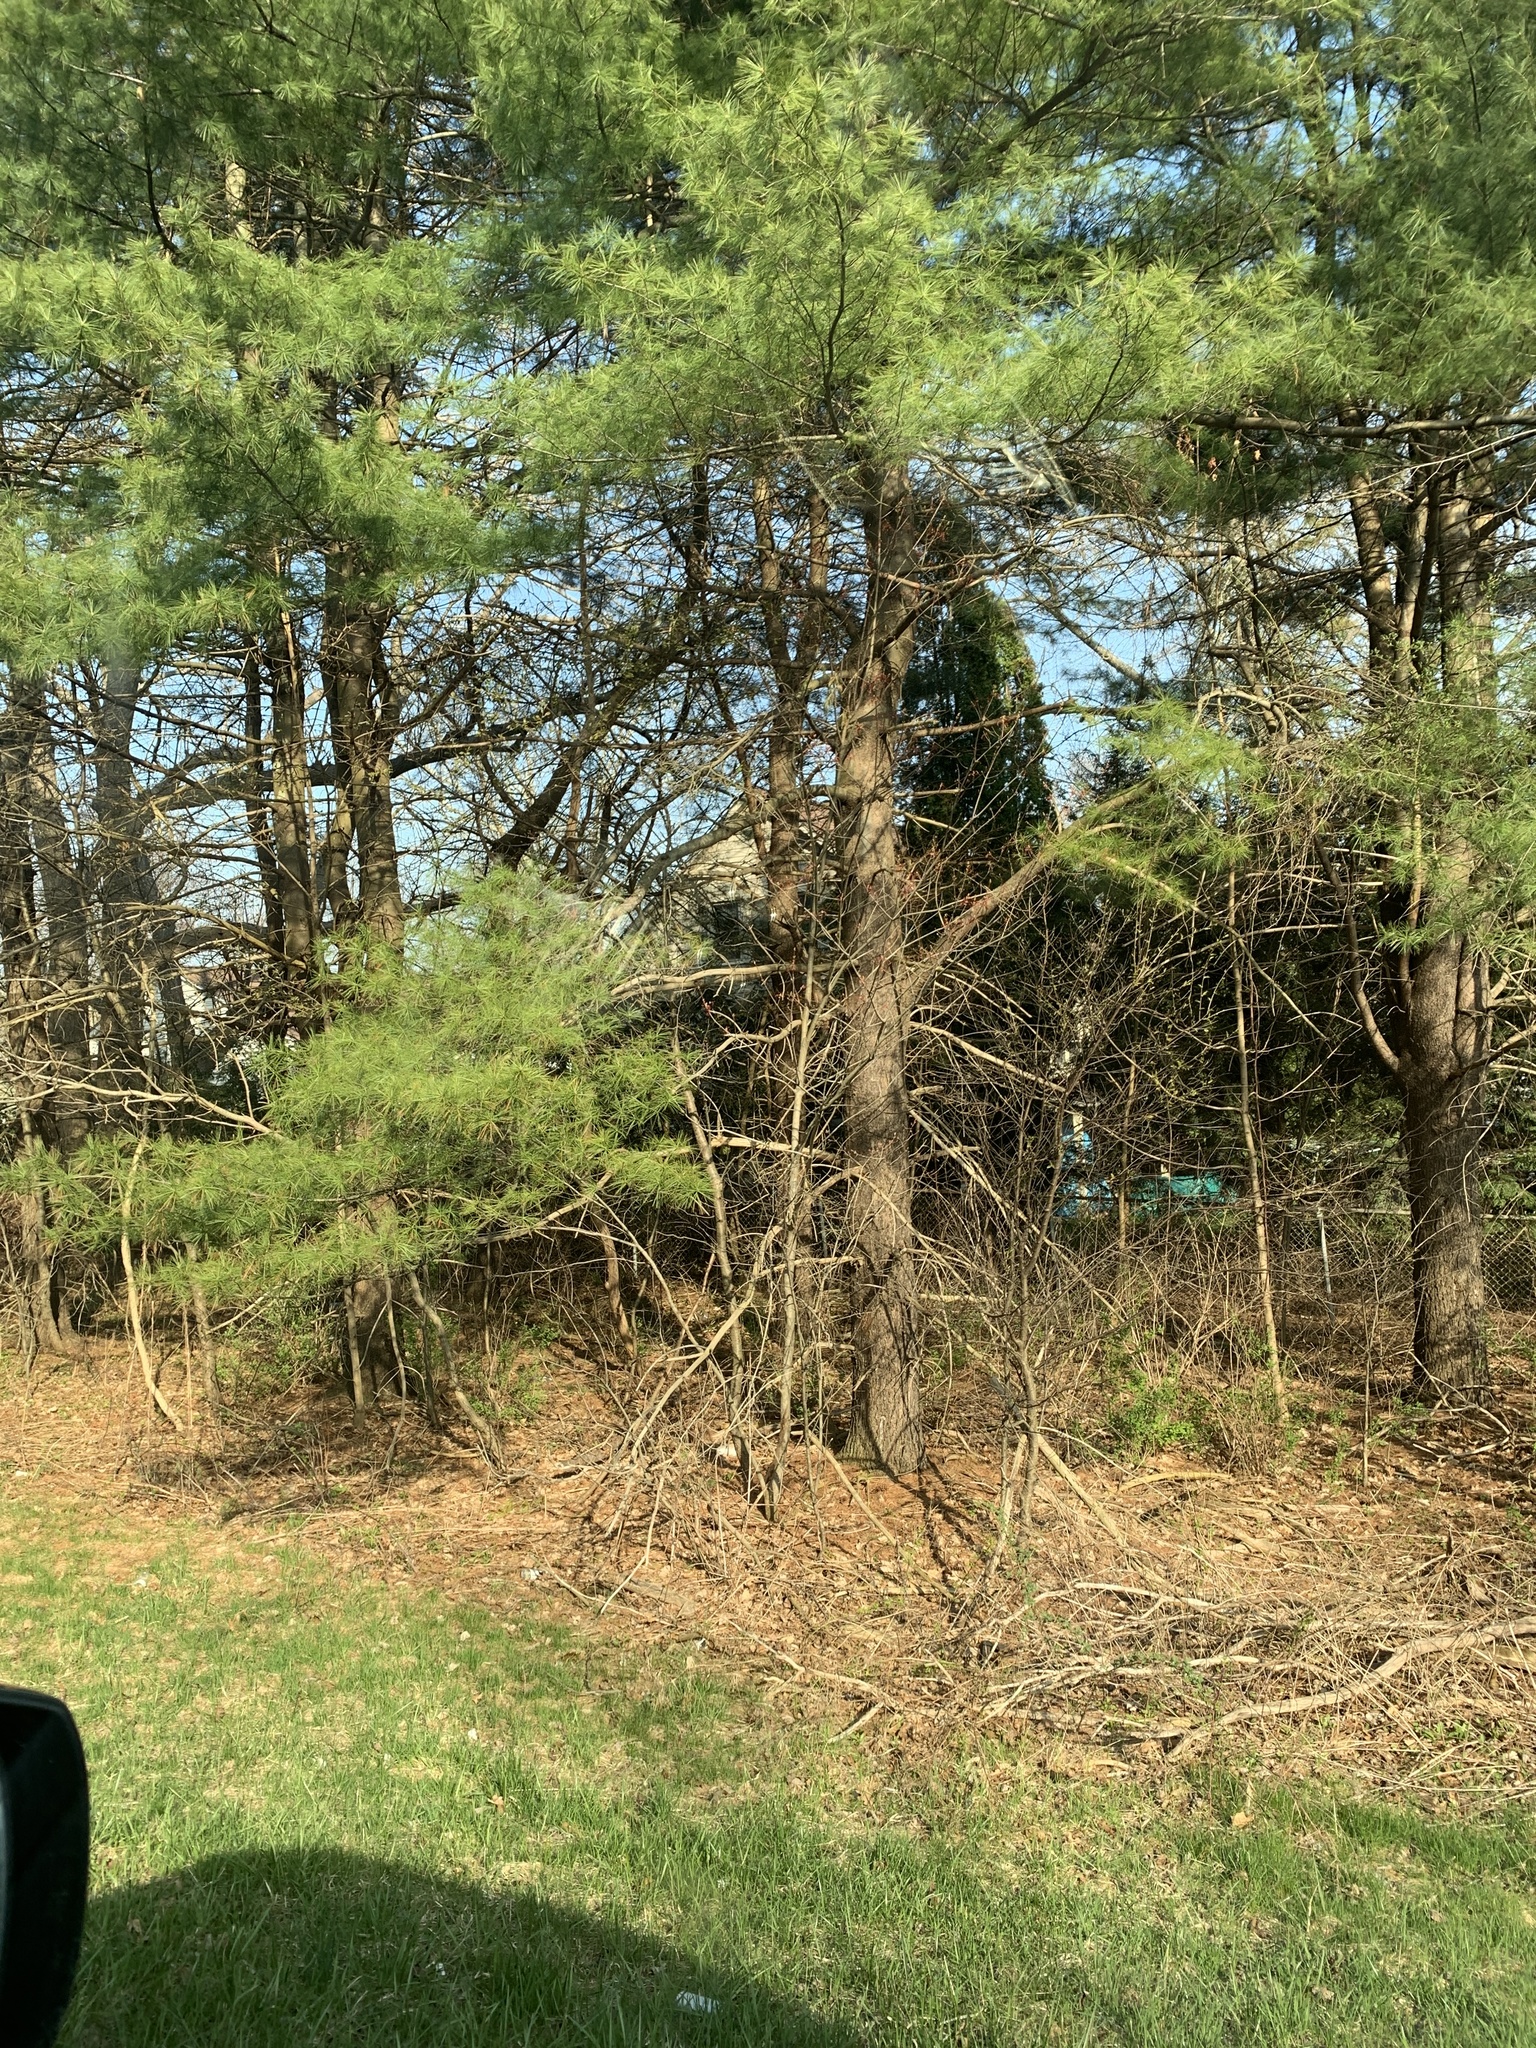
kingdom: Plantae
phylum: Tracheophyta
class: Pinopsida
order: Pinales
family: Pinaceae
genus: Pinus
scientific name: Pinus strobus
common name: Weymouth pine
